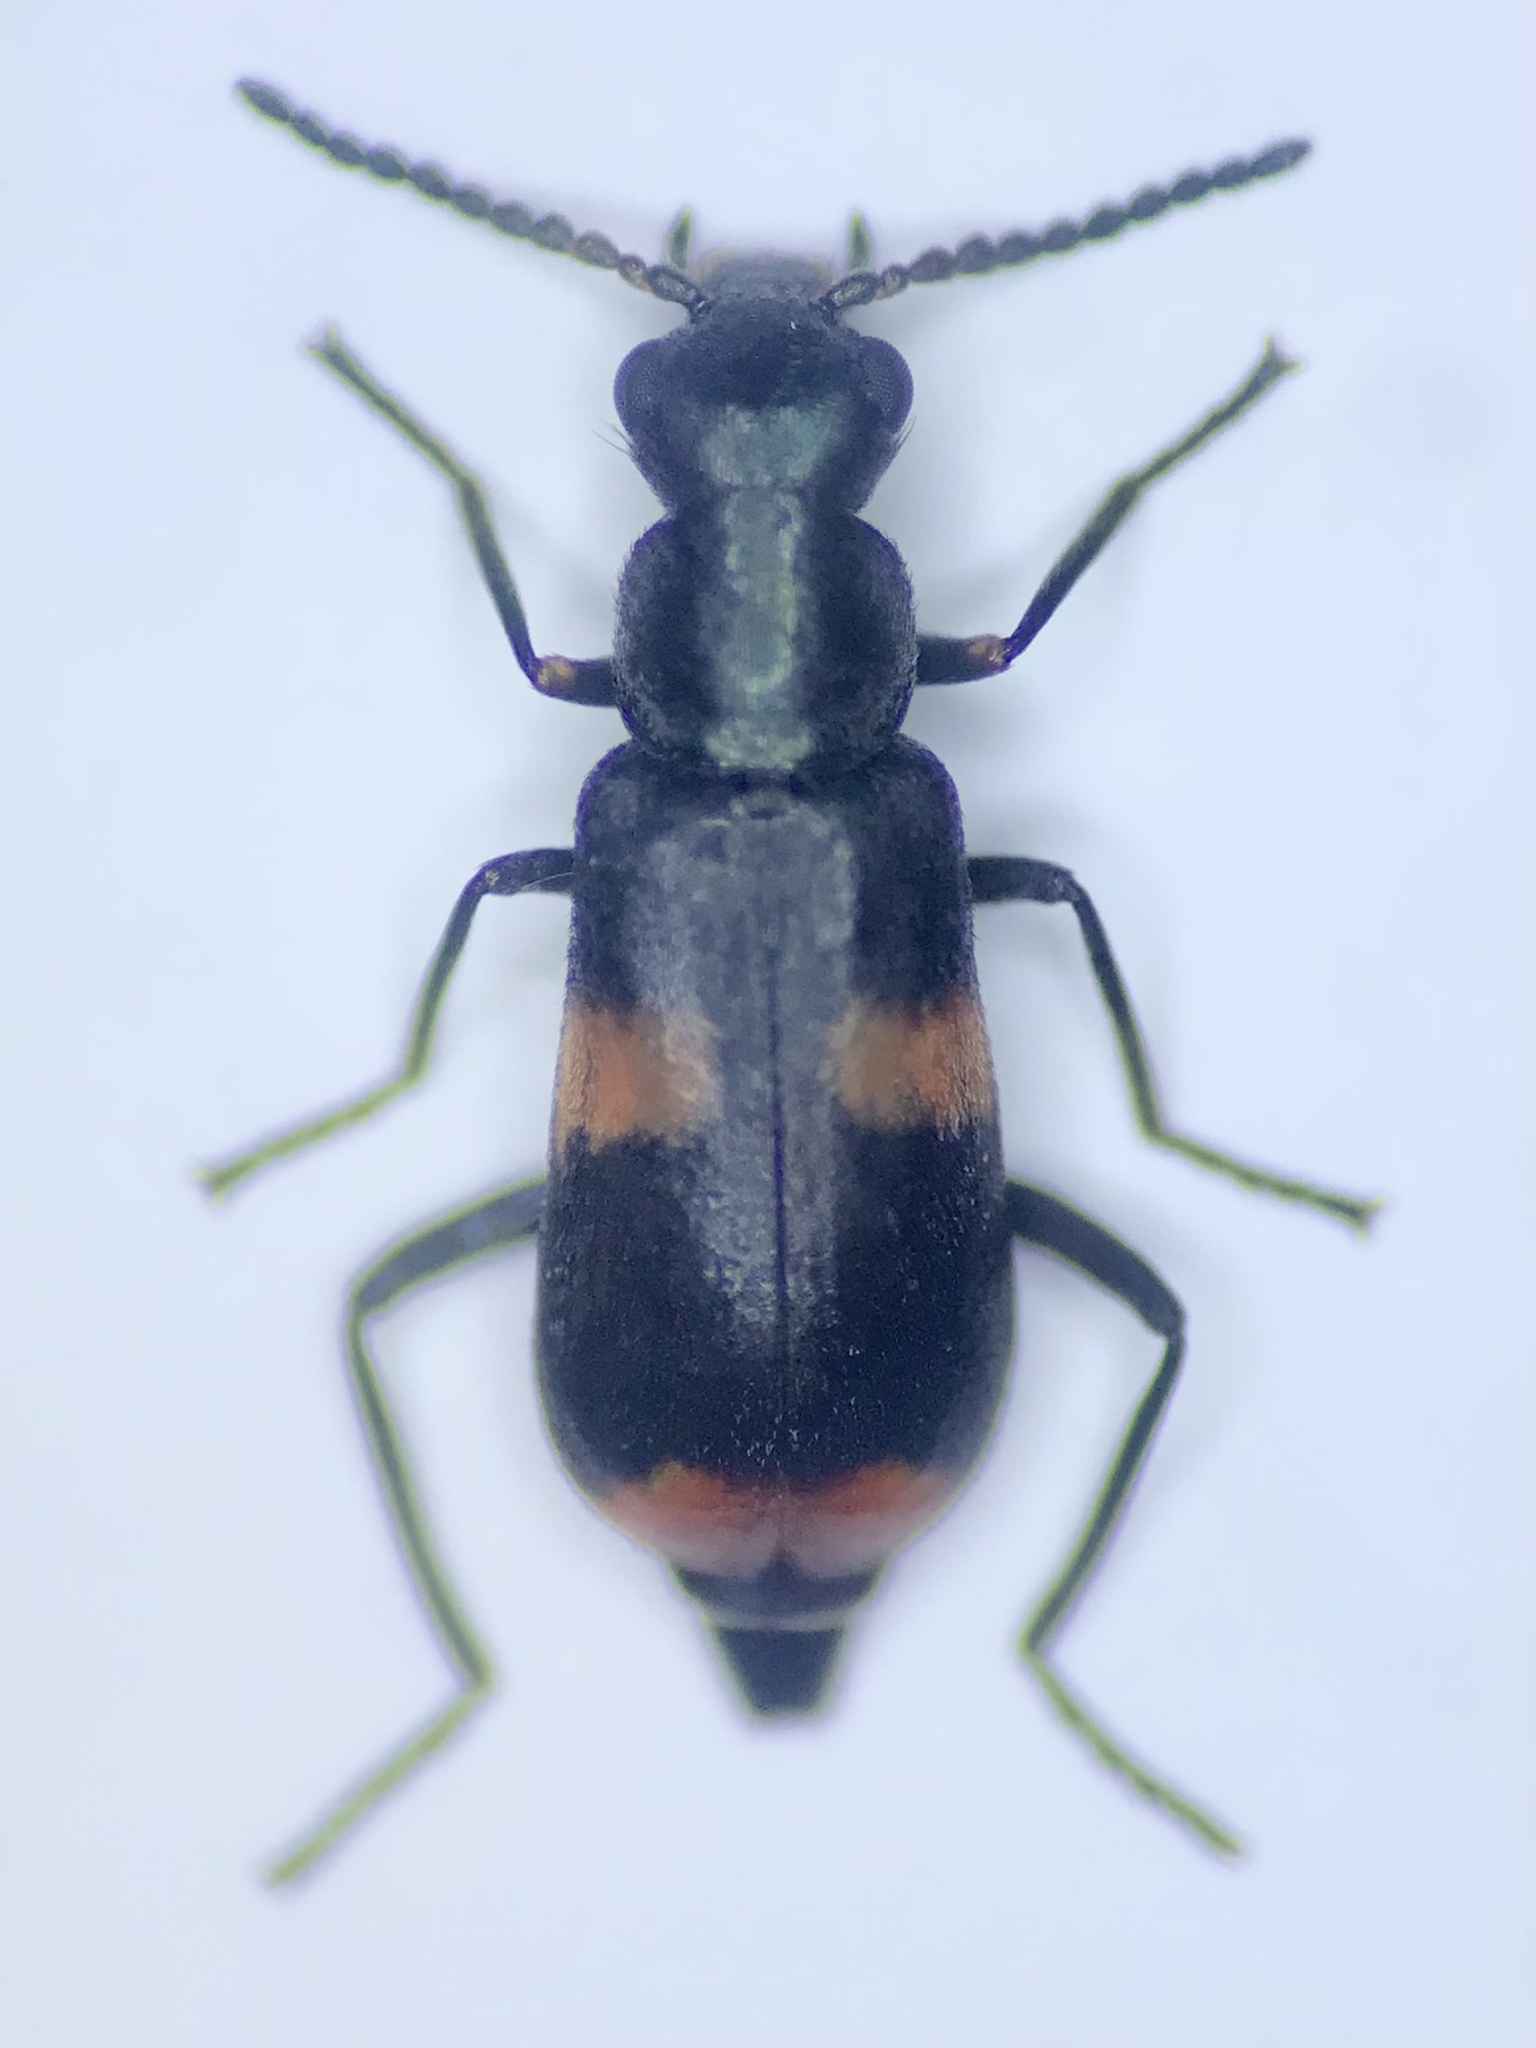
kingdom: Animalia
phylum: Arthropoda
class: Insecta
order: Coleoptera
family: Melyridae
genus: Anthocomus
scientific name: Anthocomus fasciatus
